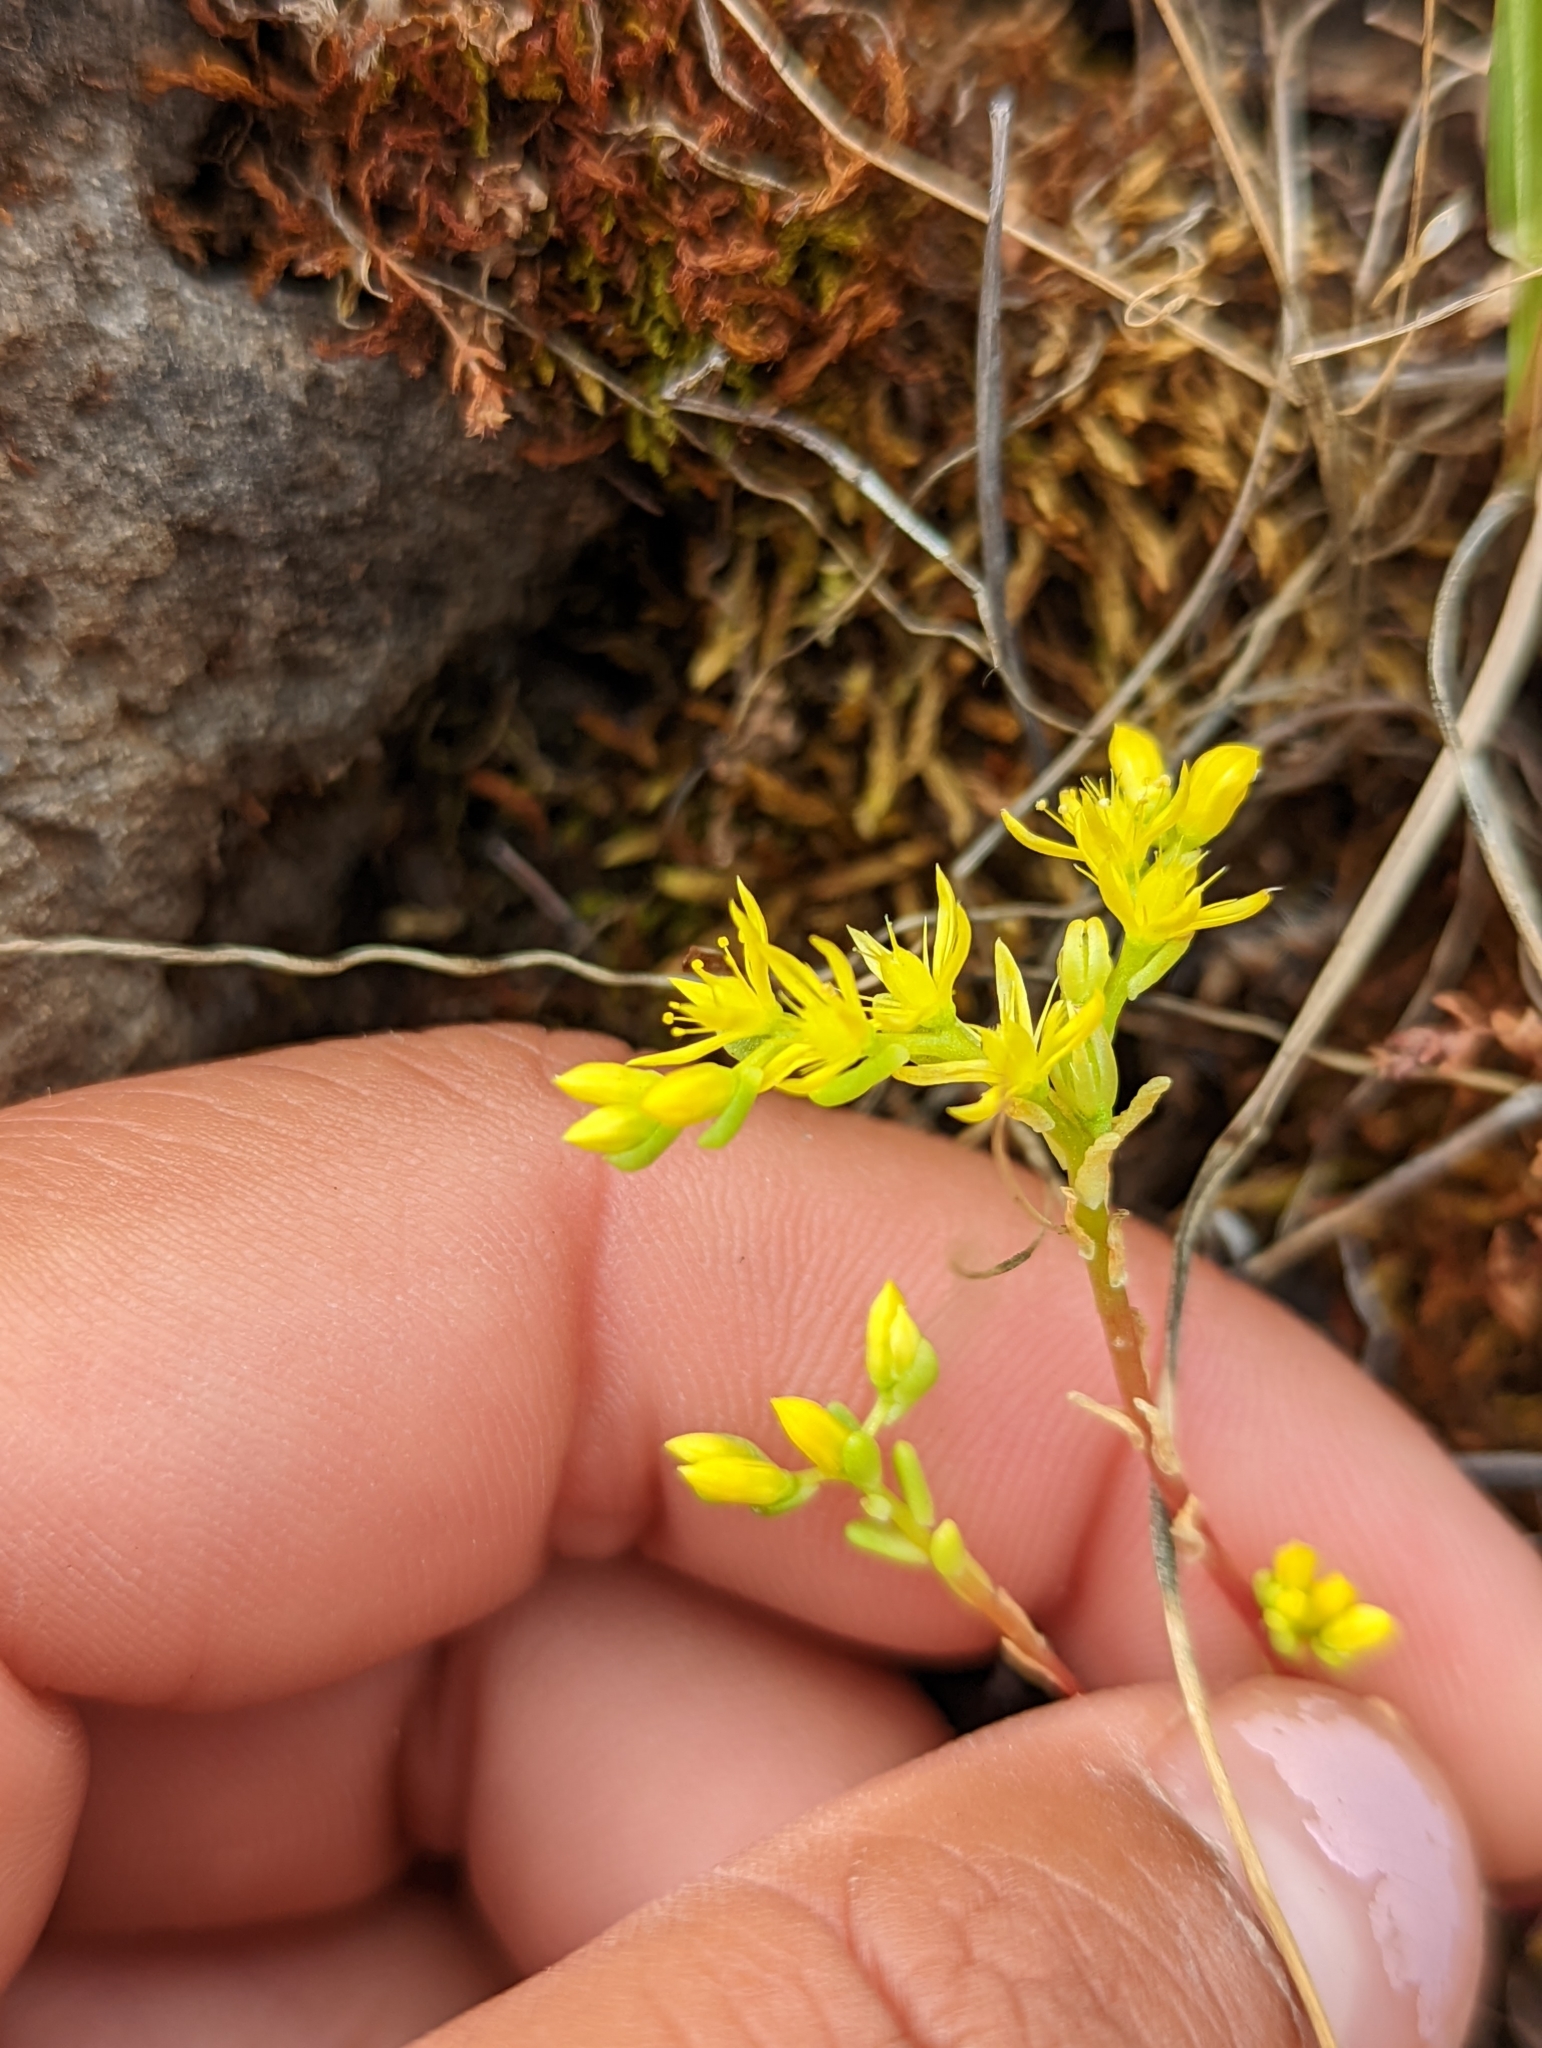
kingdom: Plantae
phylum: Tracheophyta
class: Magnoliopsida
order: Saxifragales
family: Crassulaceae
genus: Sedella
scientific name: Sedella pumila
